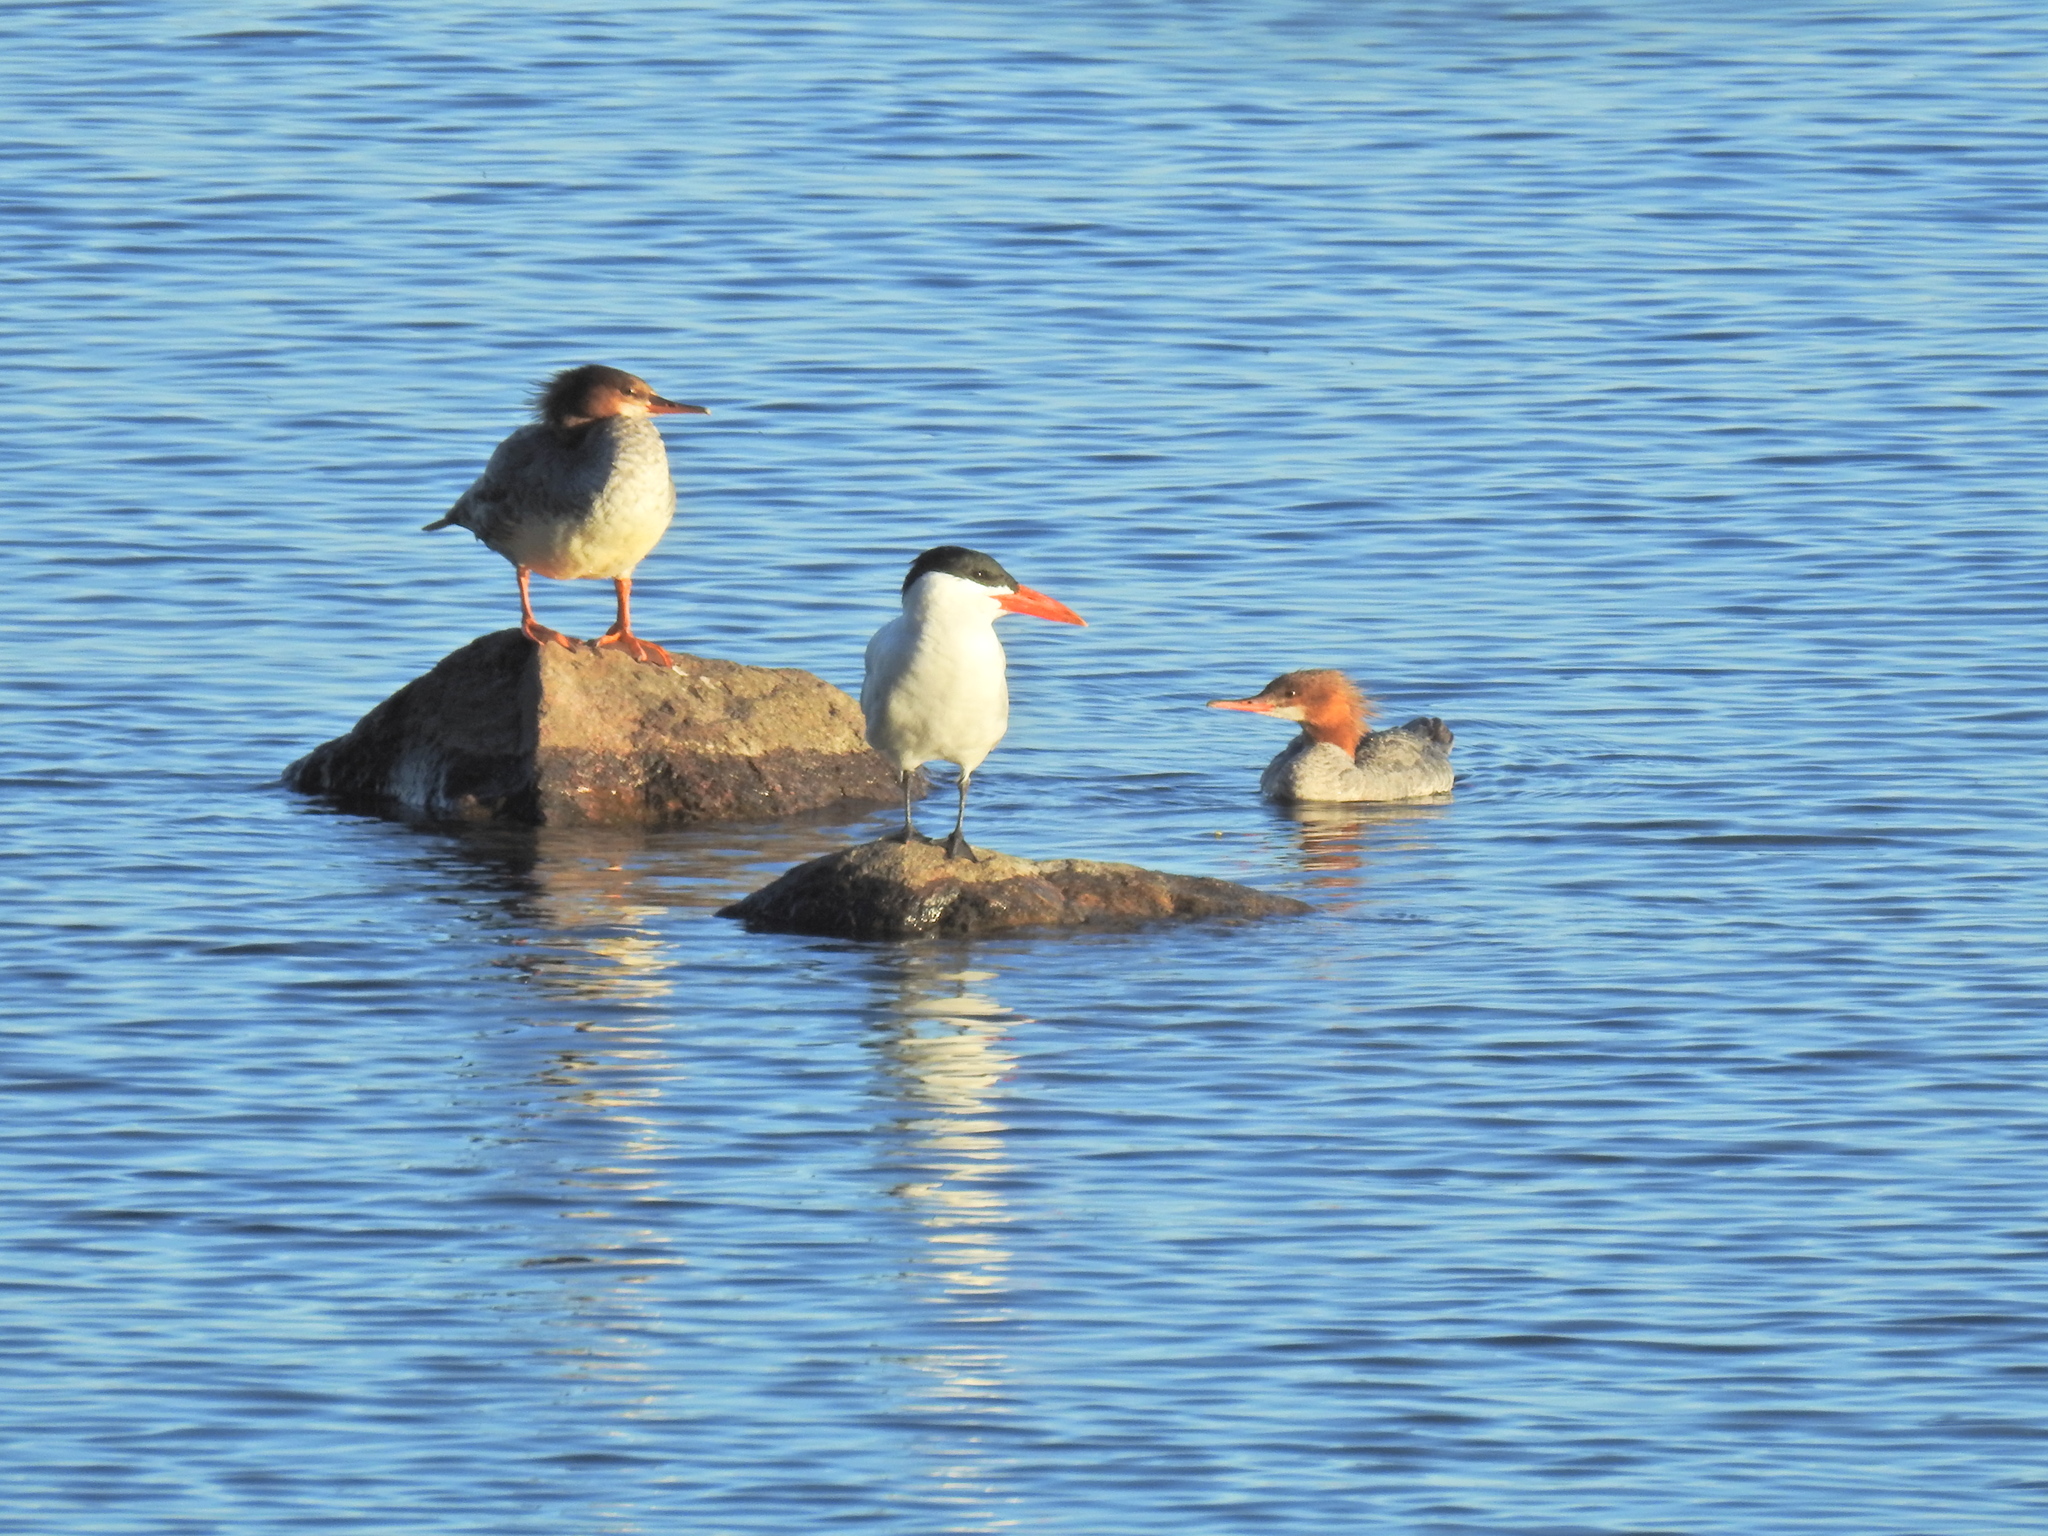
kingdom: Animalia
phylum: Chordata
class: Aves
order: Charadriiformes
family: Laridae
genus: Hydroprogne
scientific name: Hydroprogne caspia
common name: Caspian tern
